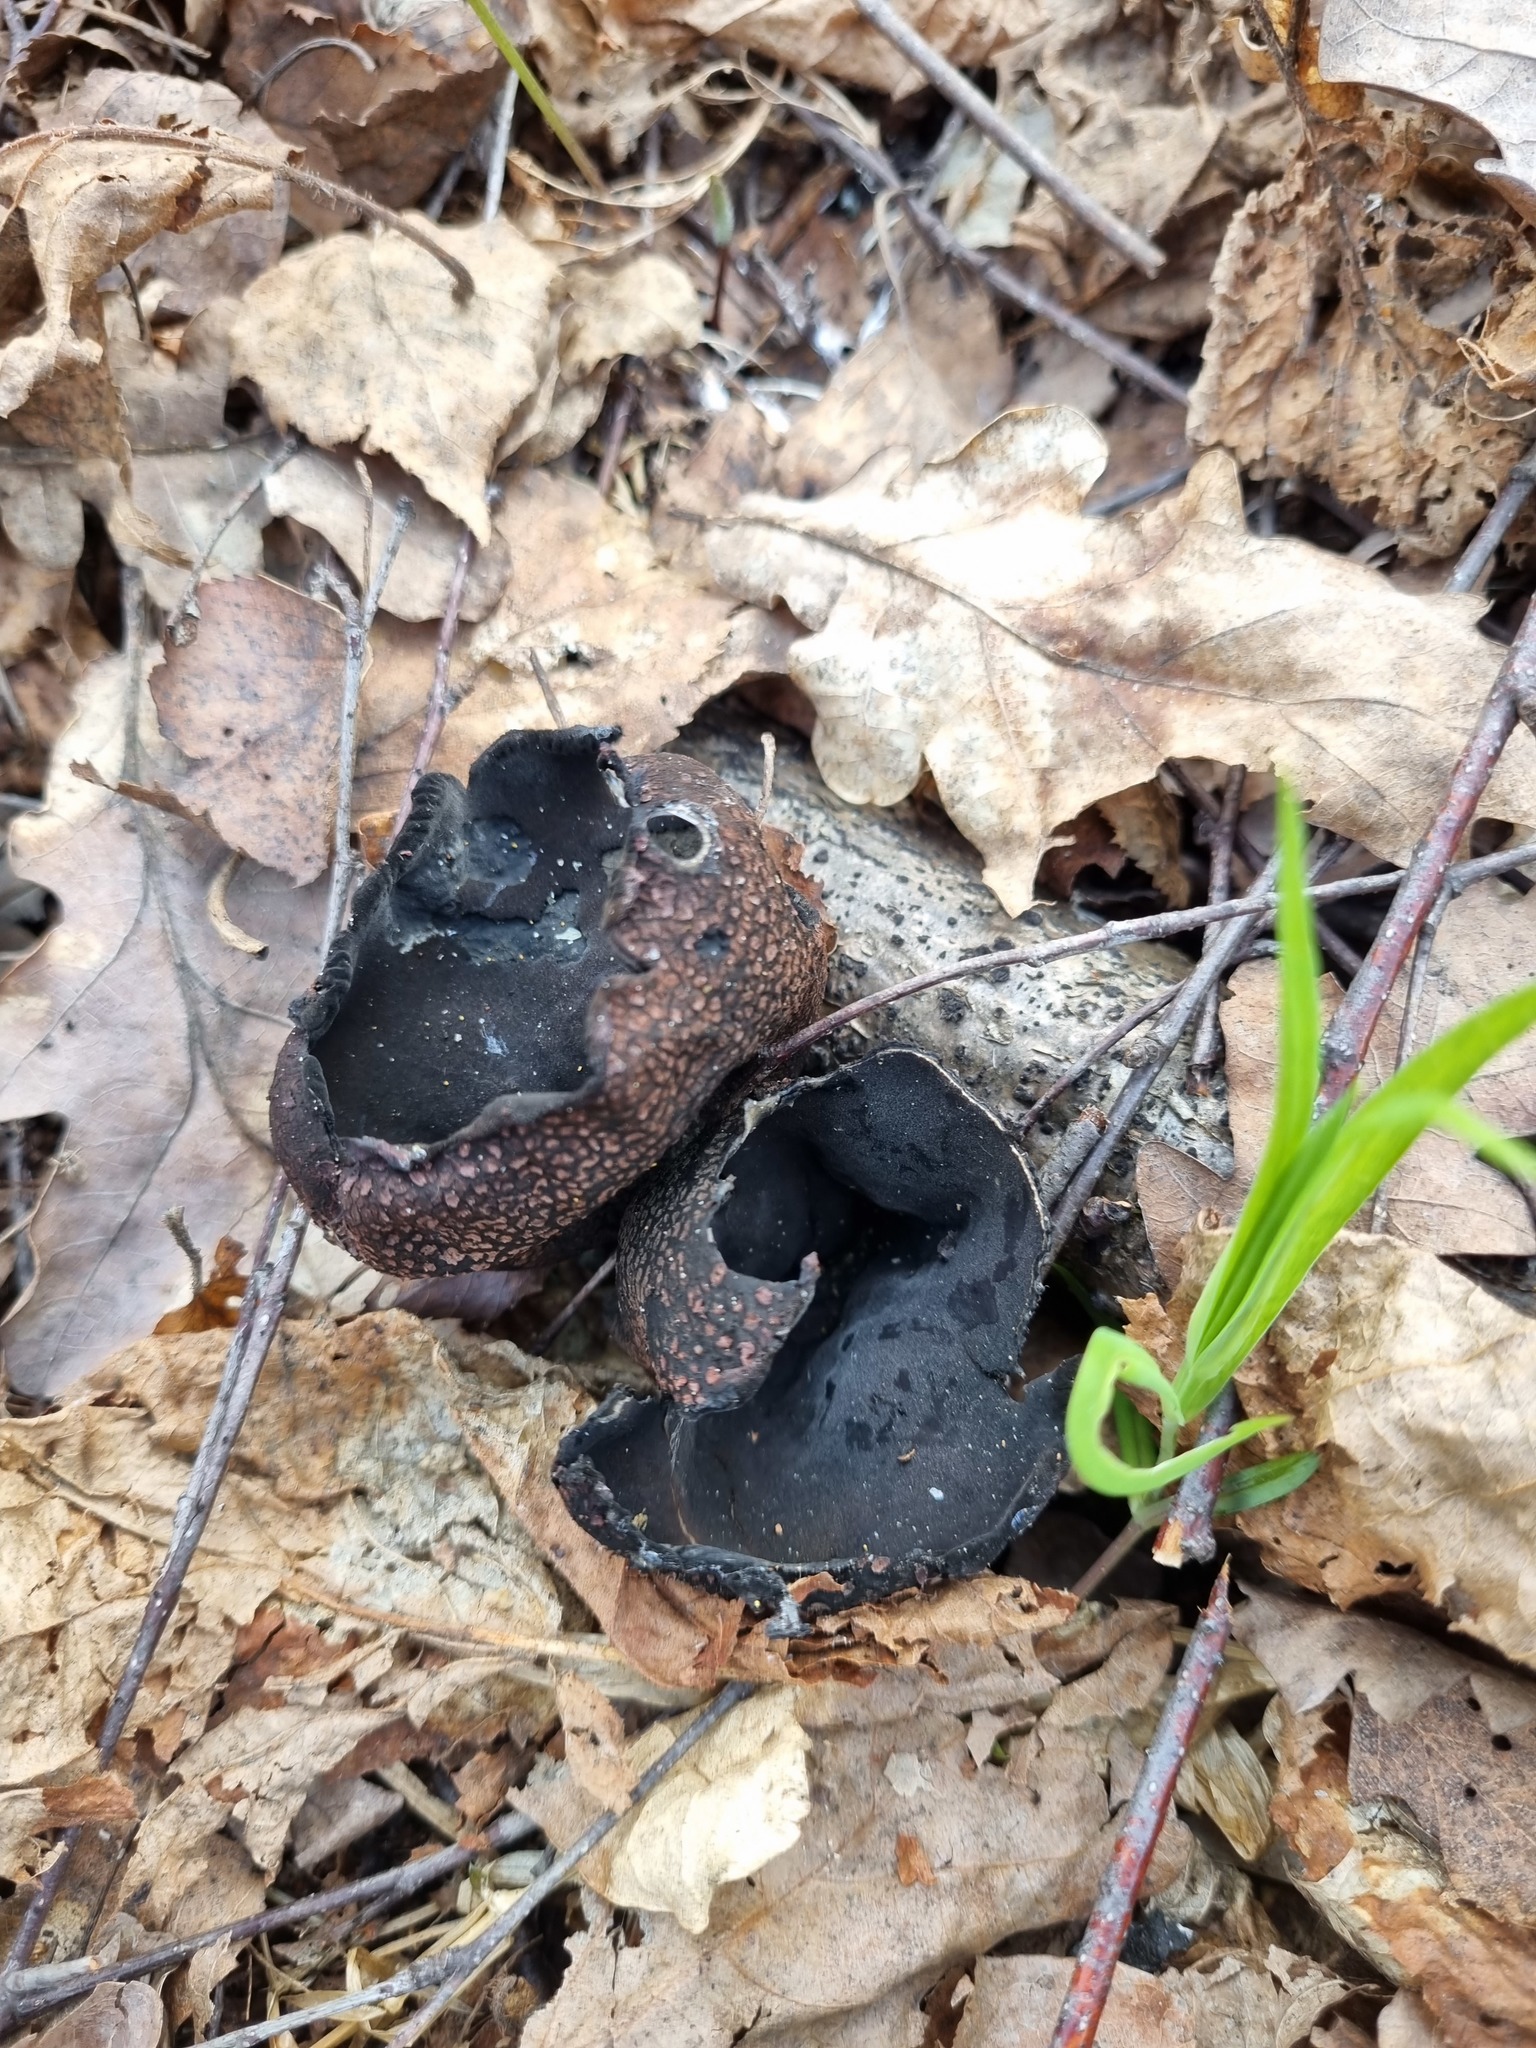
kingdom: Fungi
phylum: Ascomycota
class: Pezizomycetes
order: Pezizales
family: Sarcosomataceae
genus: Urnula
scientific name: Urnula craterium
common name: Devil's urn
